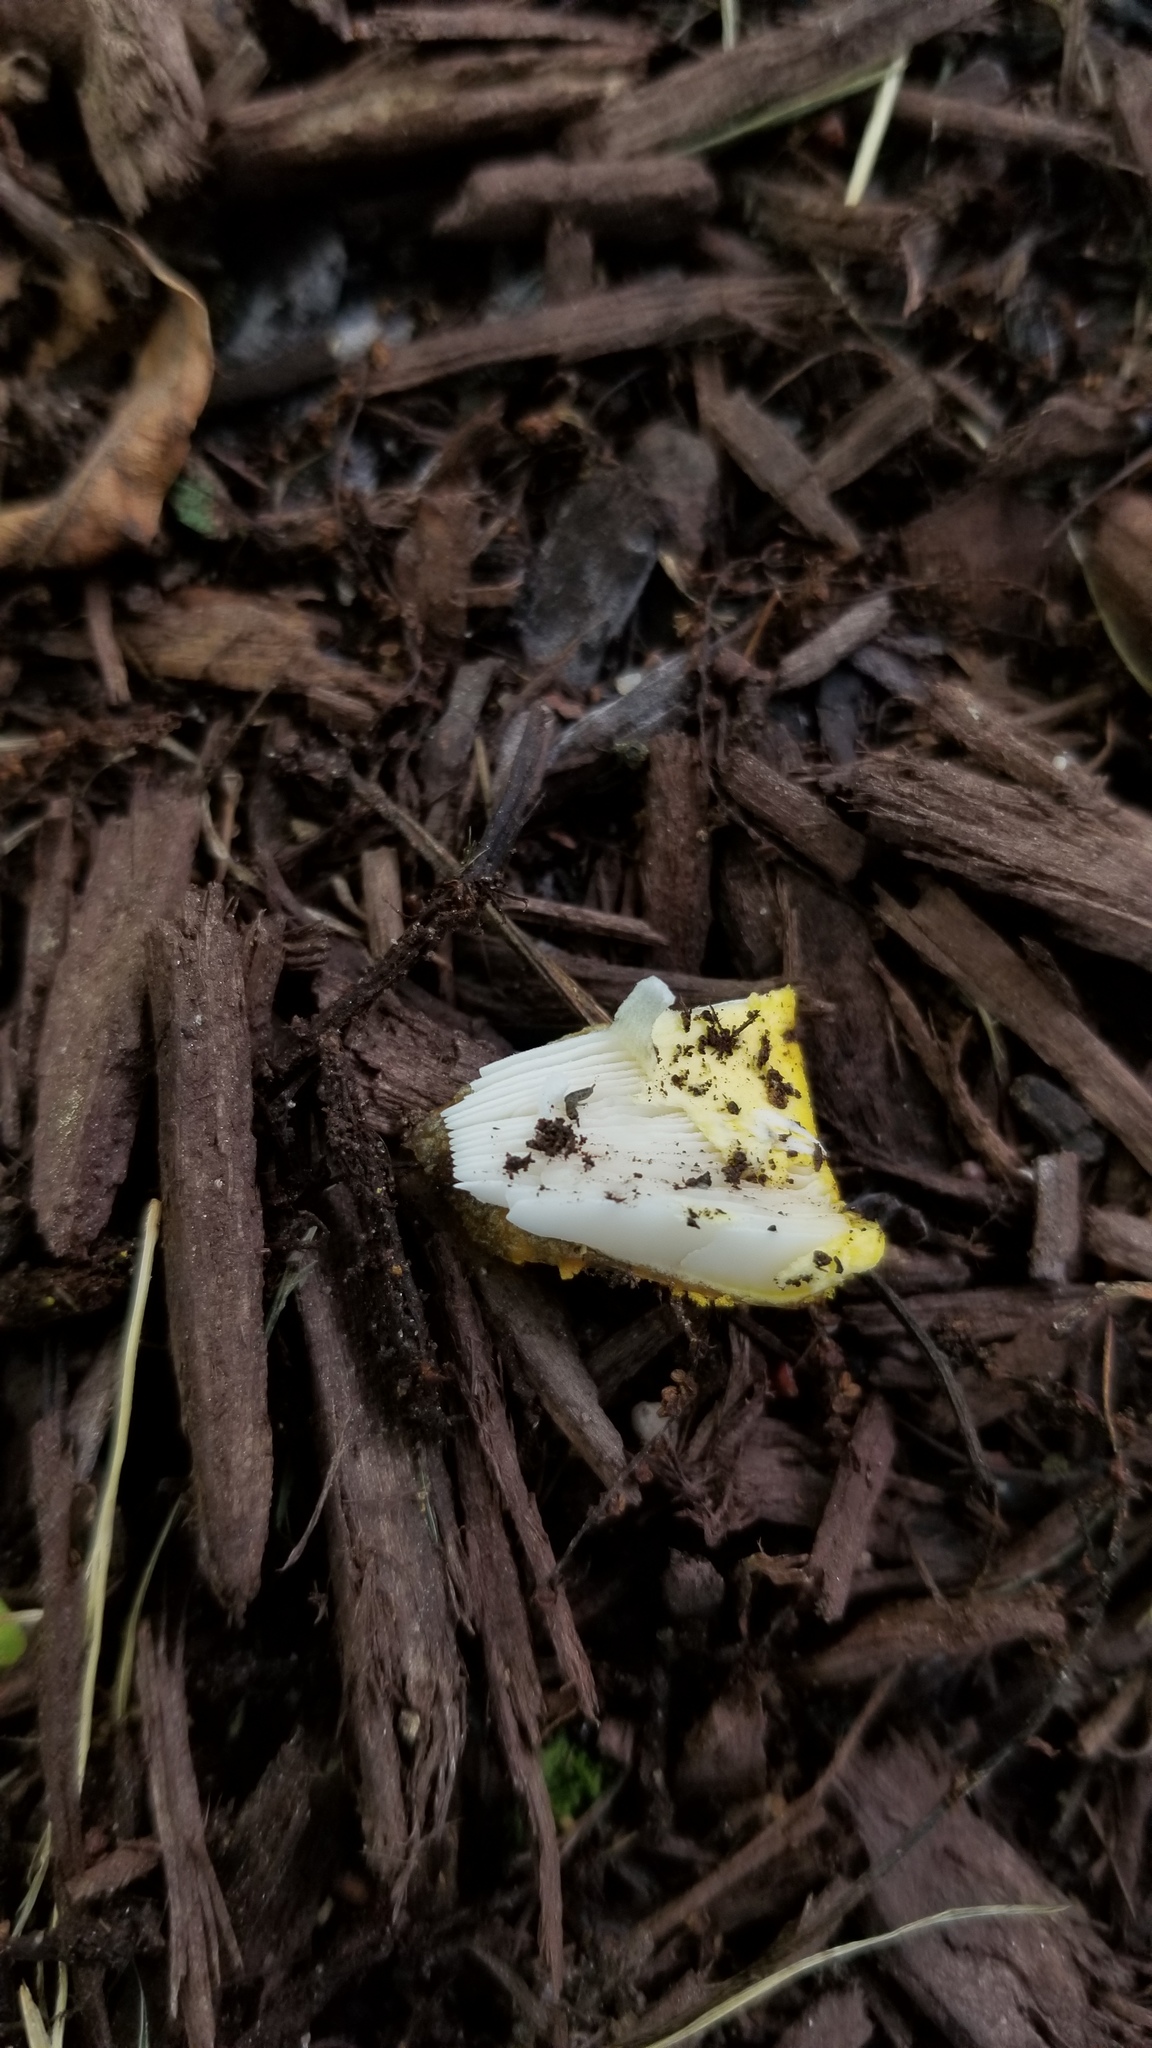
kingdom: Fungi
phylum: Basidiomycota
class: Agaricomycetes
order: Agaricales
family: Amanitaceae
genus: Amanita
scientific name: Amanita flavorubens
